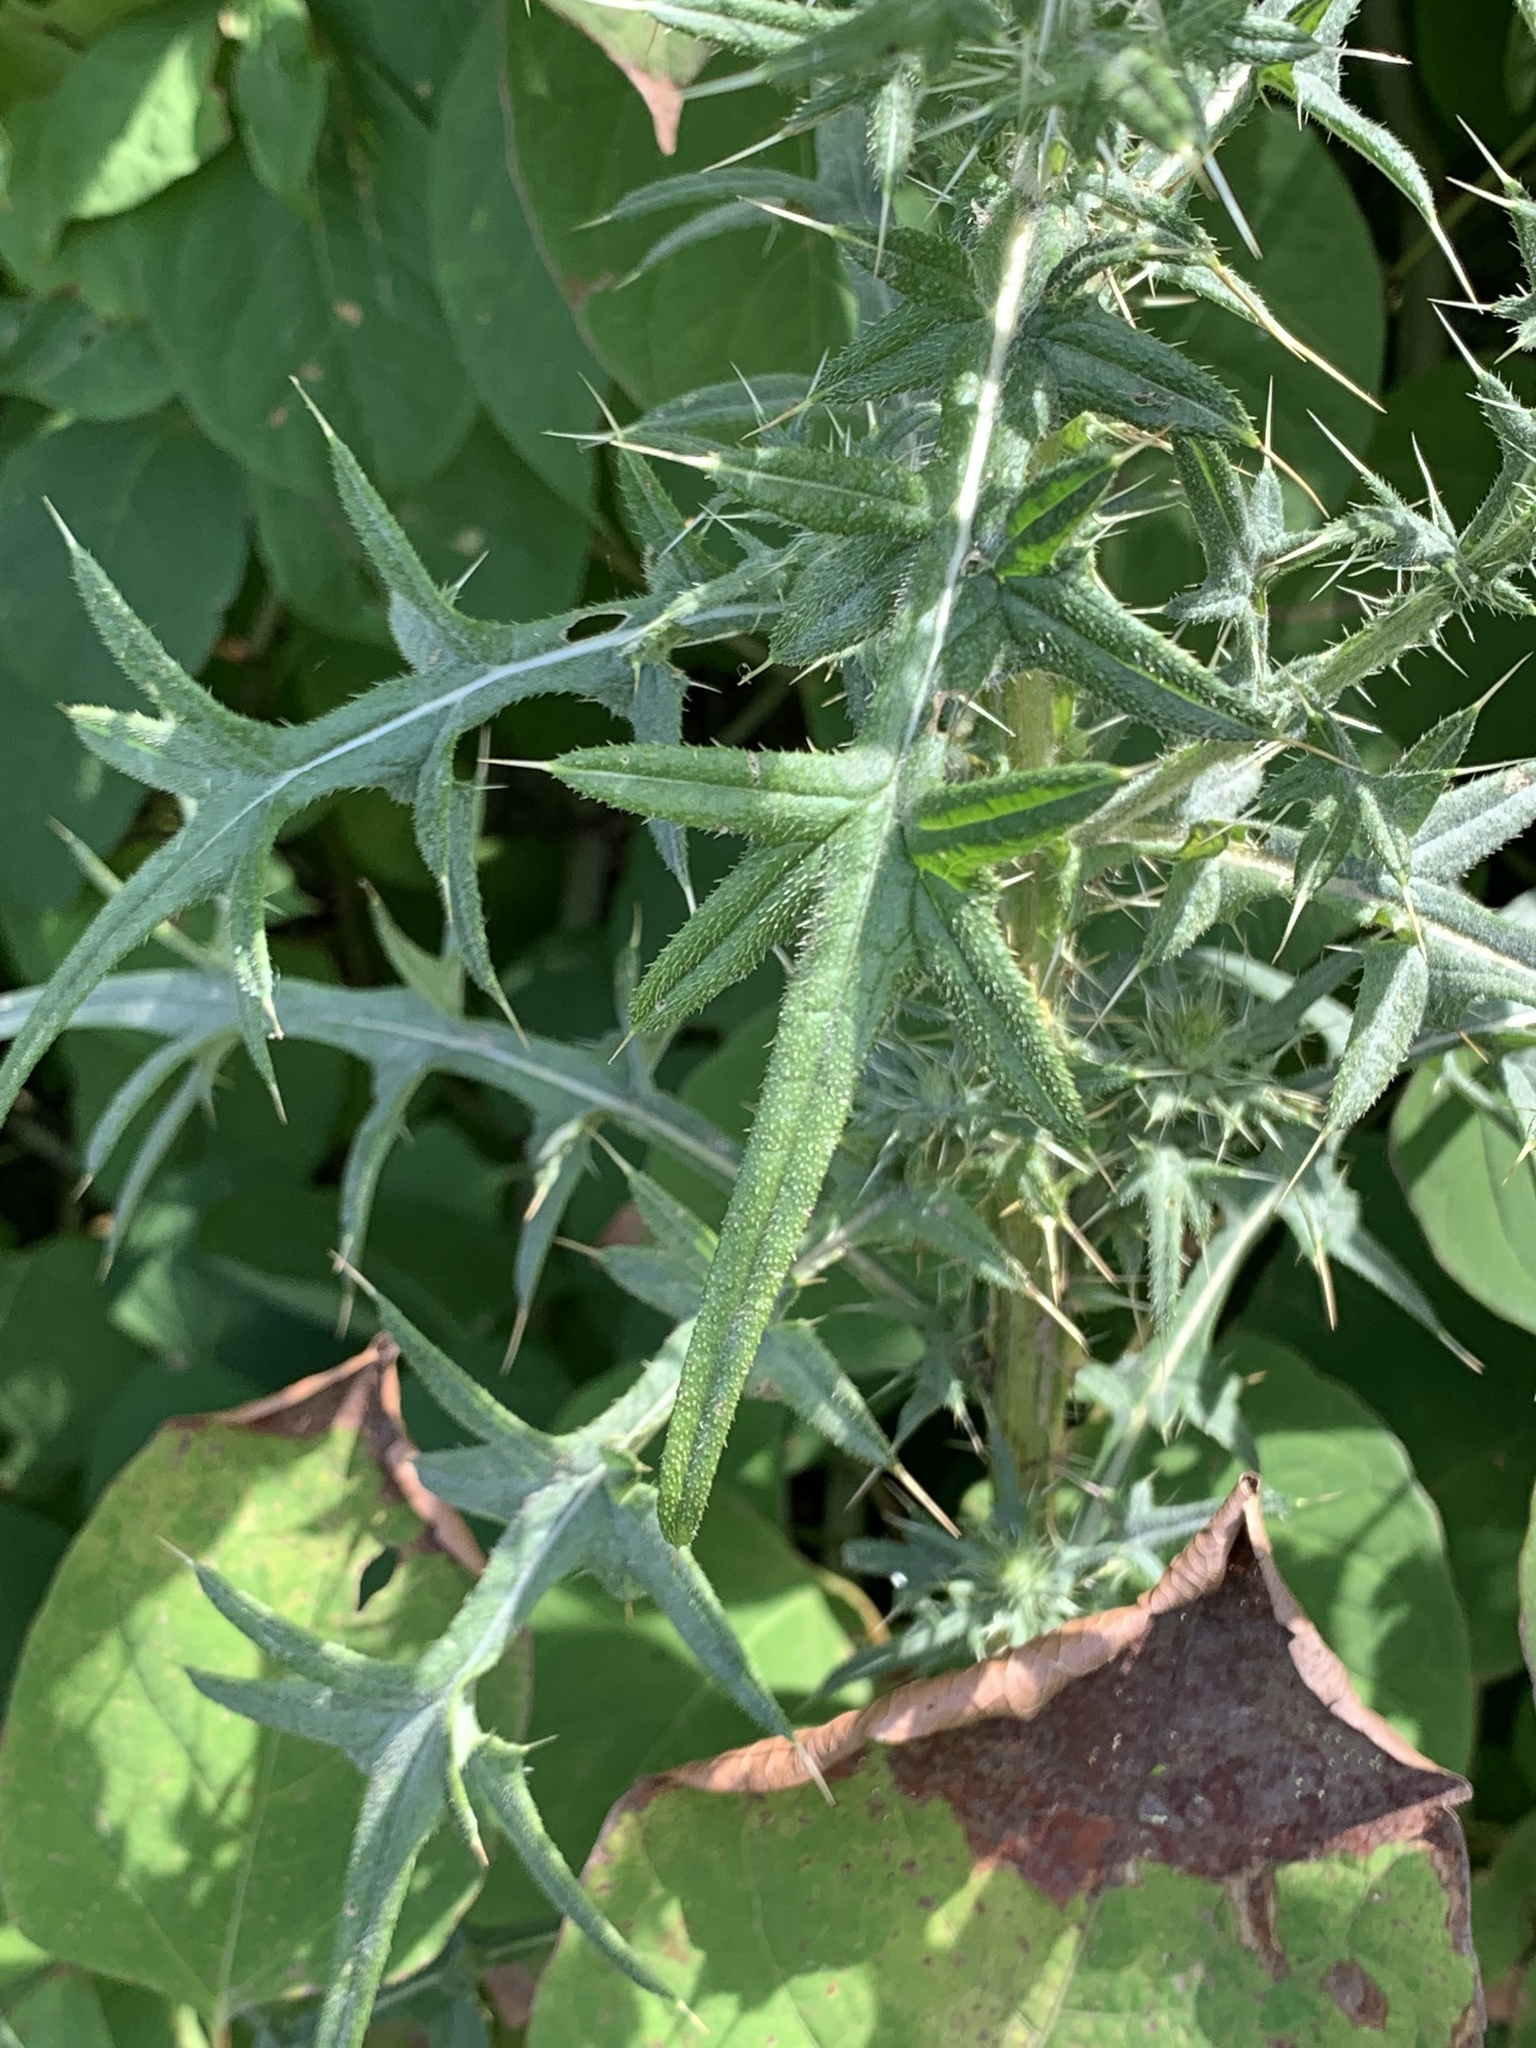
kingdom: Plantae
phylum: Tracheophyta
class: Magnoliopsida
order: Asterales
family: Asteraceae
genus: Cirsium
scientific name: Cirsium vulgare
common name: Bull thistle
